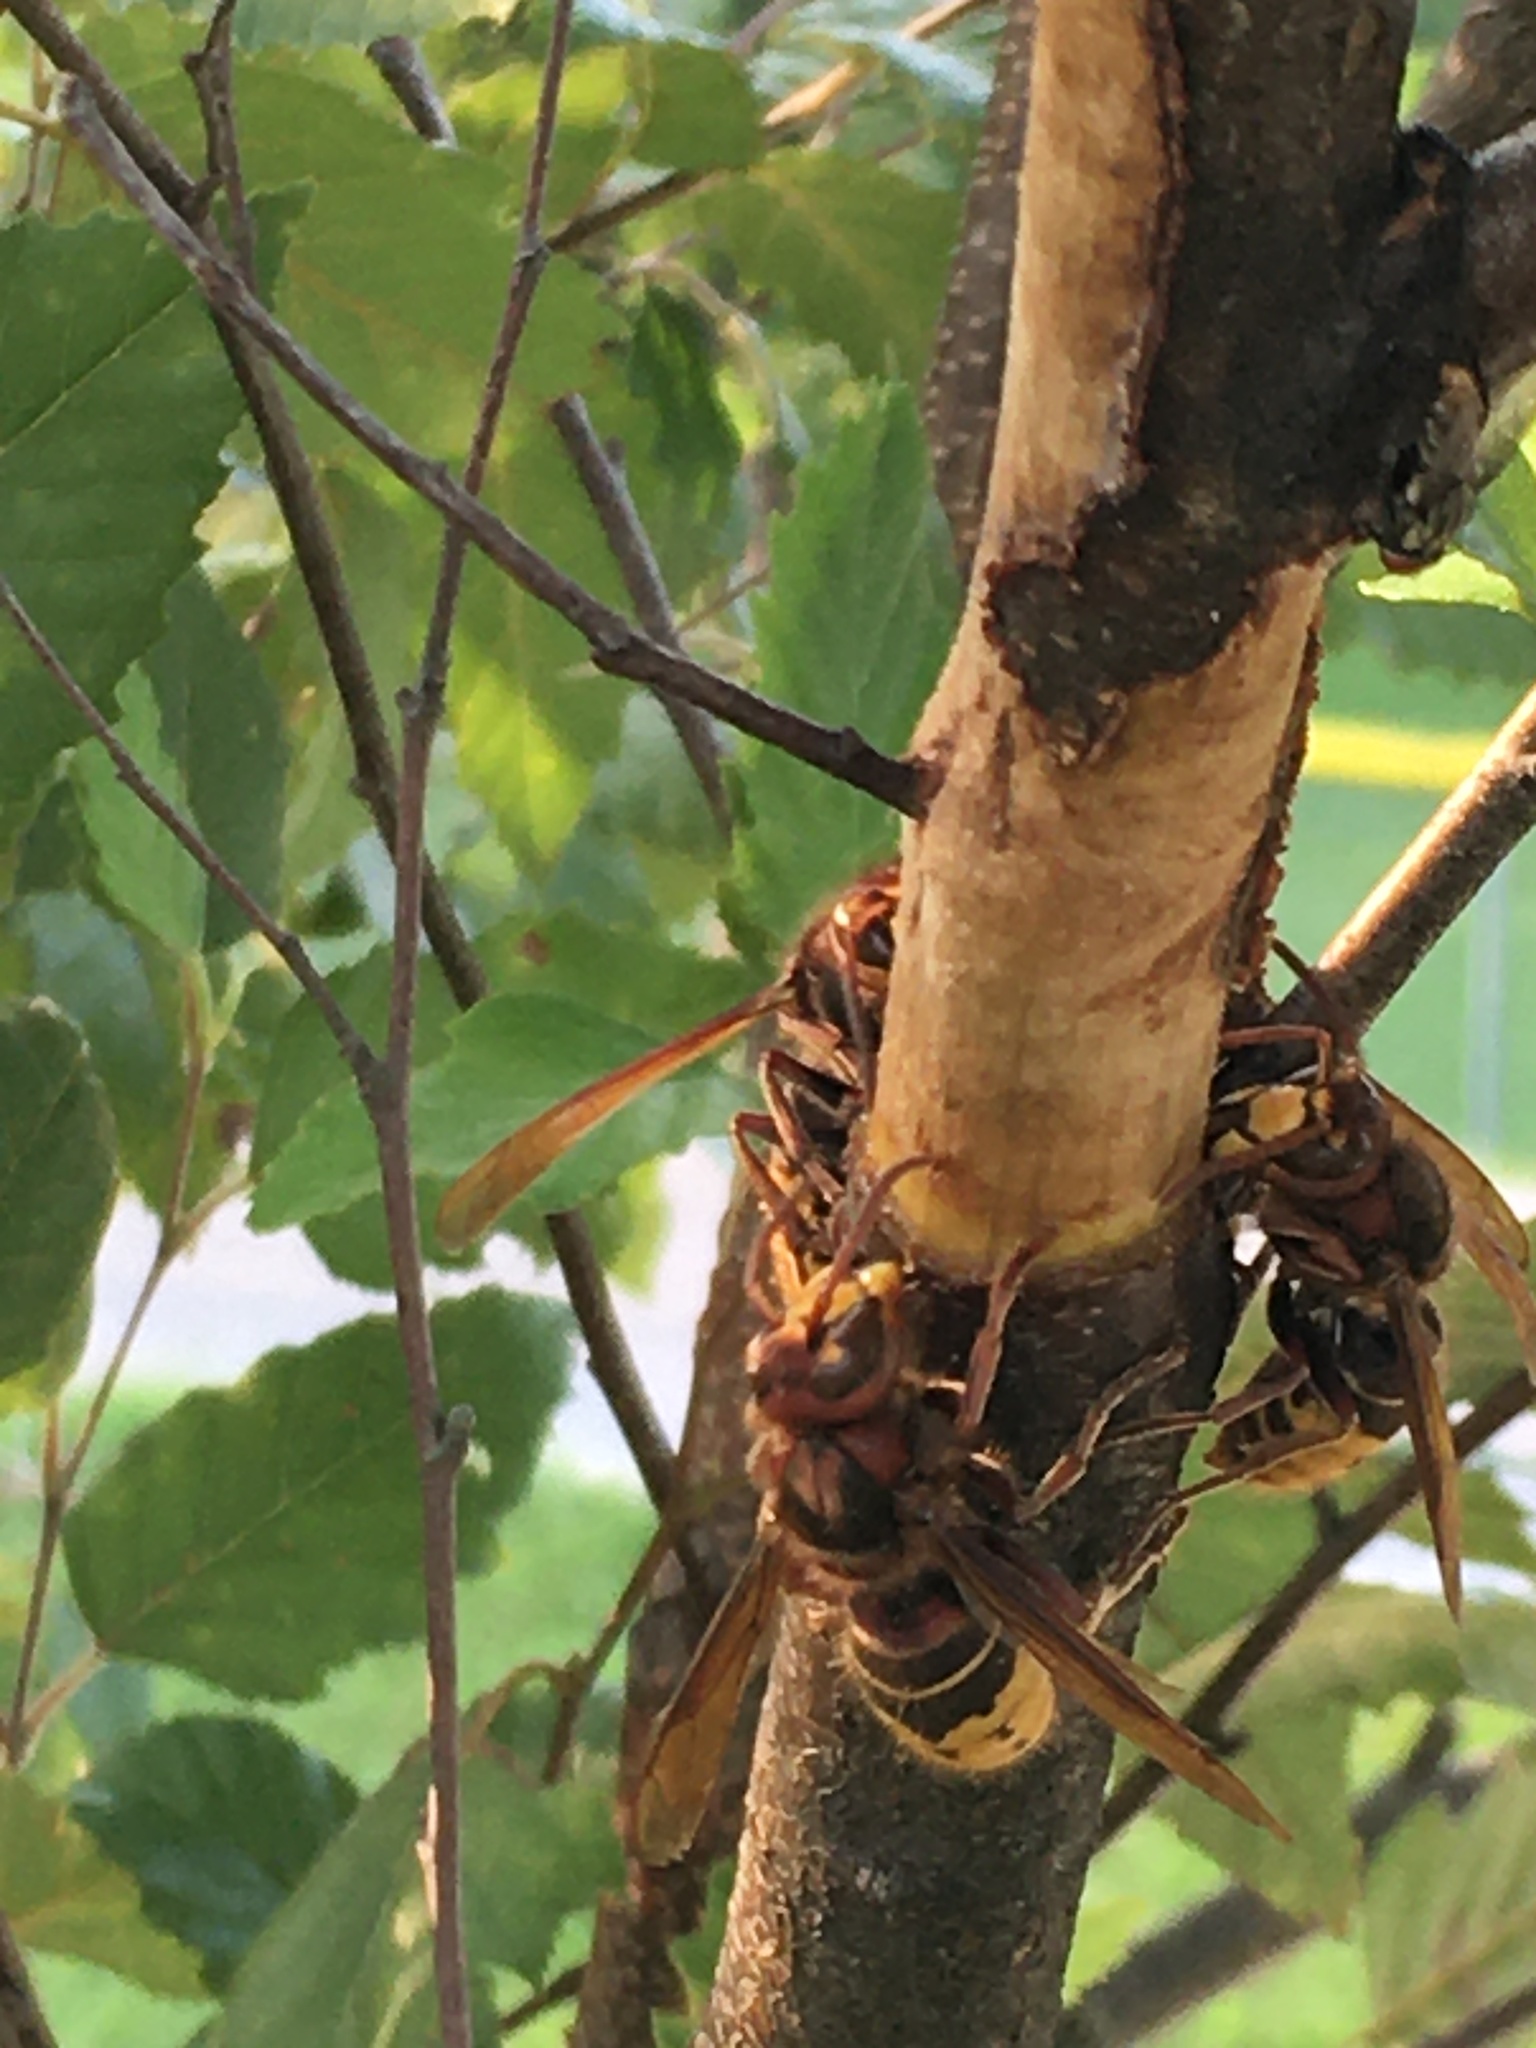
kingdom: Animalia
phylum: Arthropoda
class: Insecta
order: Hymenoptera
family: Vespidae
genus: Vespa
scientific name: Vespa crabro
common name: Hornet
